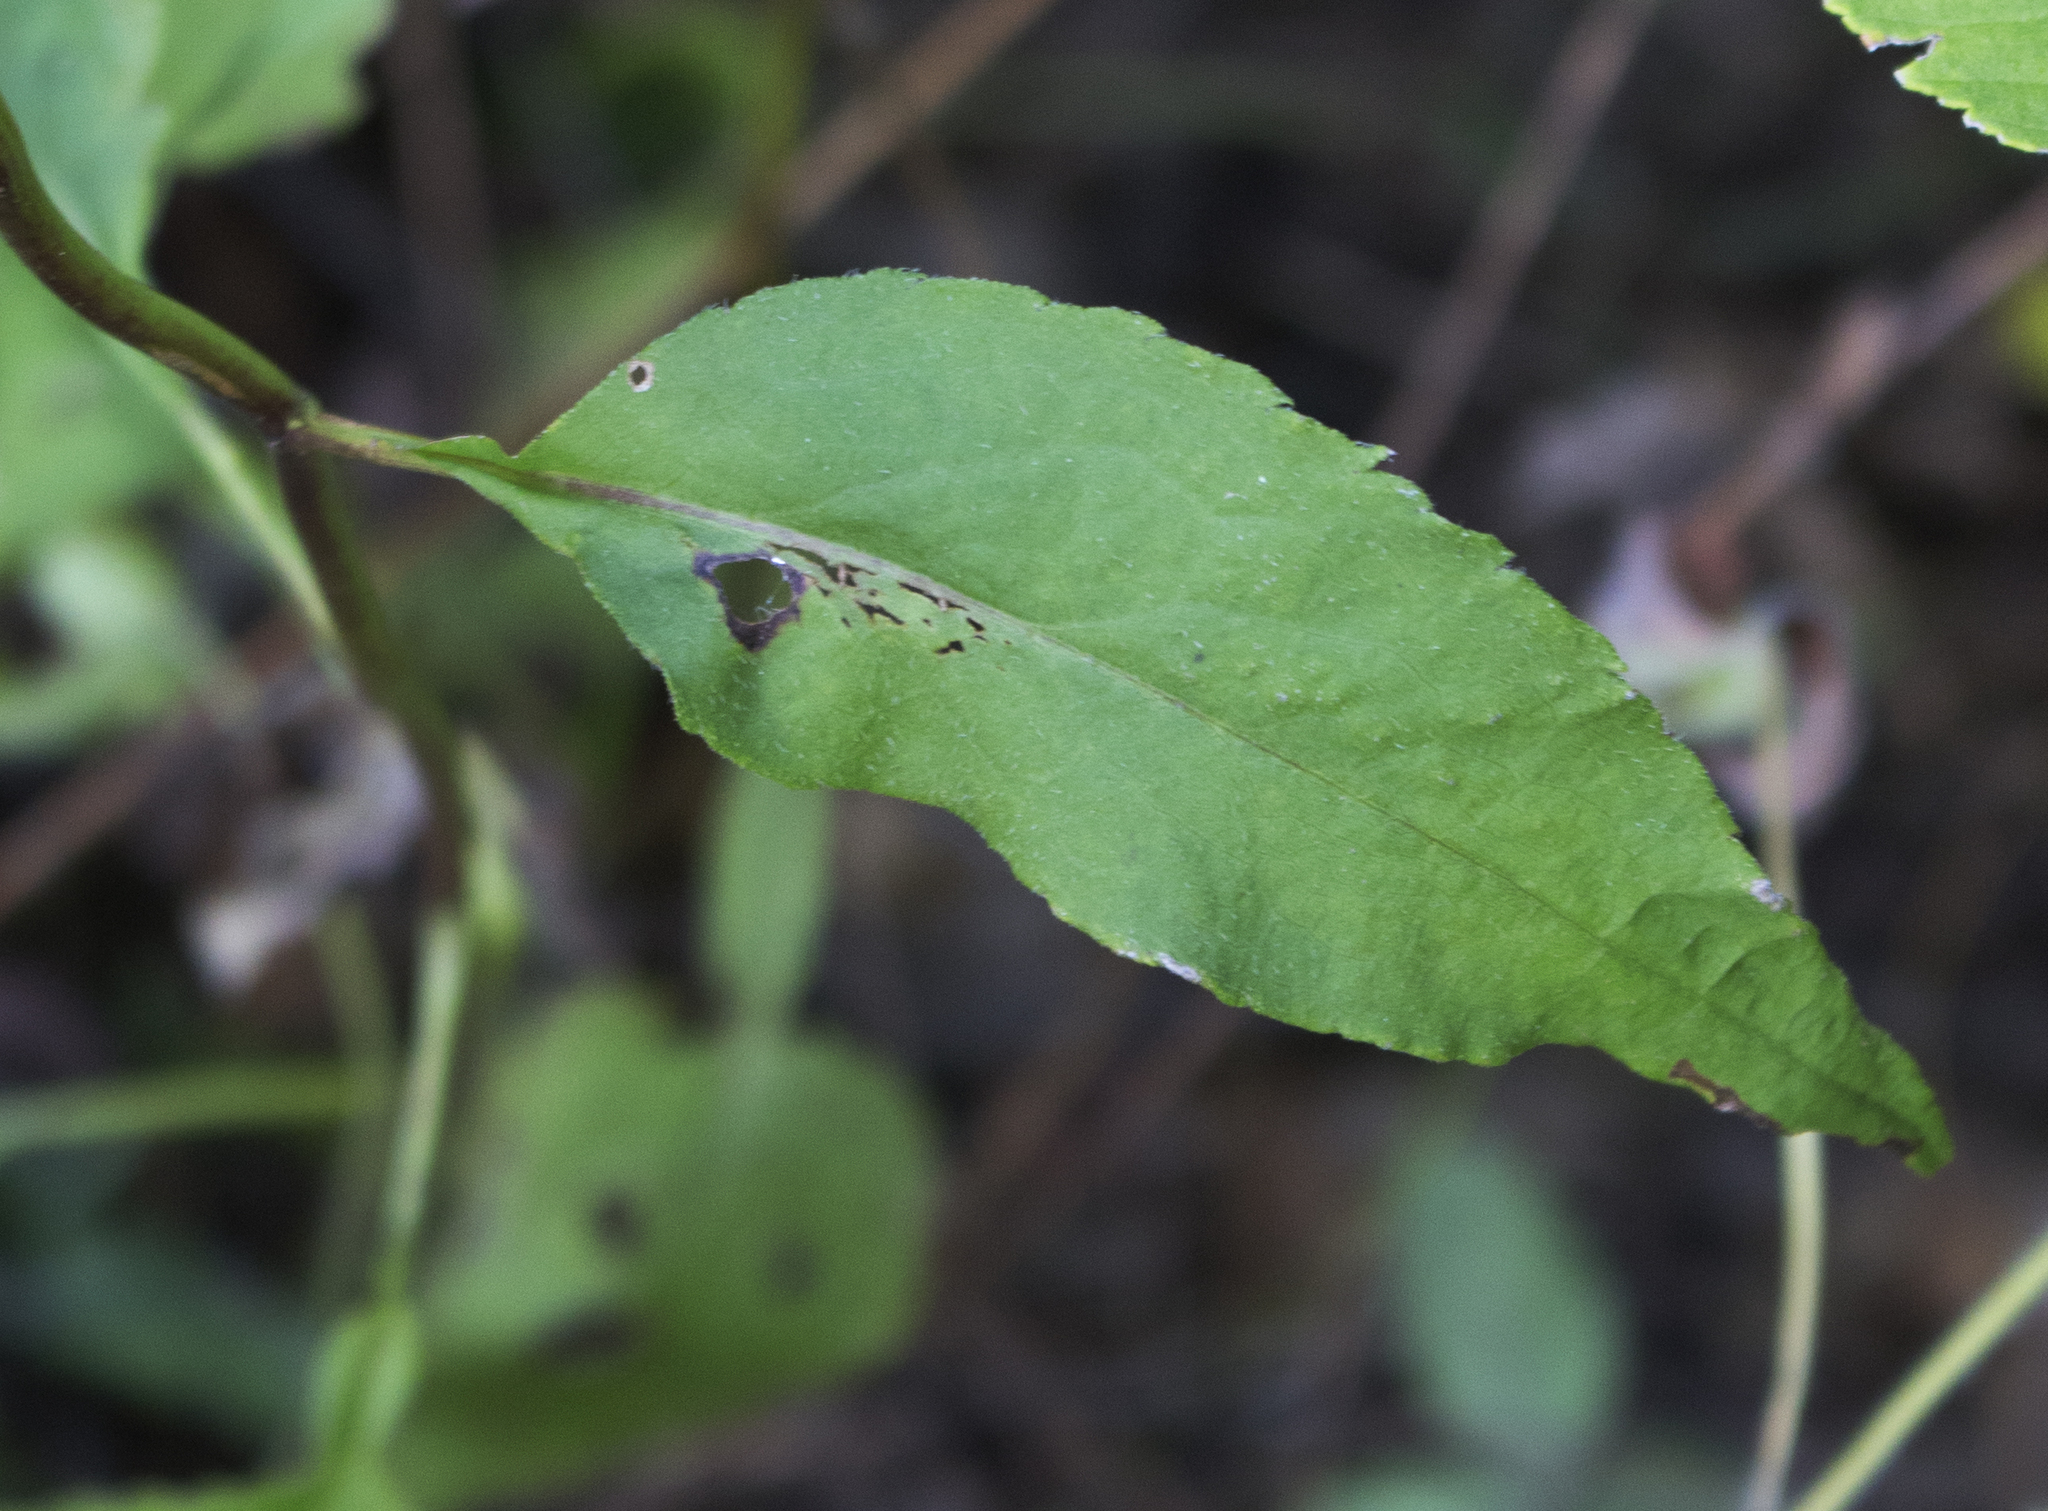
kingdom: Plantae
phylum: Tracheophyta
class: Magnoliopsida
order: Asterales
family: Asteraceae
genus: Symphyotrichum
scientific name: Symphyotrichum urophyllum
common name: Arrow-leaved aster
